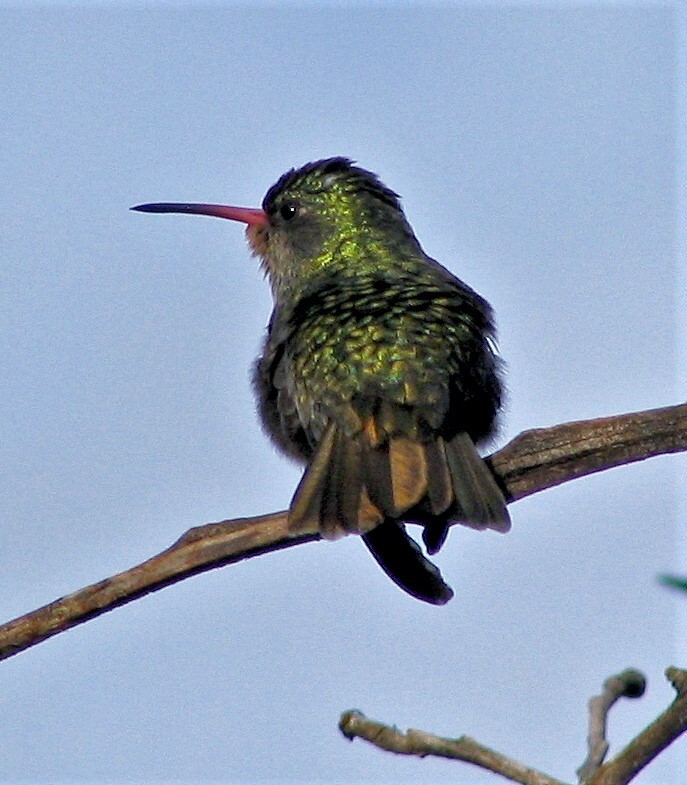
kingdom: Animalia
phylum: Chordata
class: Aves
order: Apodiformes
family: Trochilidae
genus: Hylocharis
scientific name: Hylocharis chrysura
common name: Gilded sapphire
